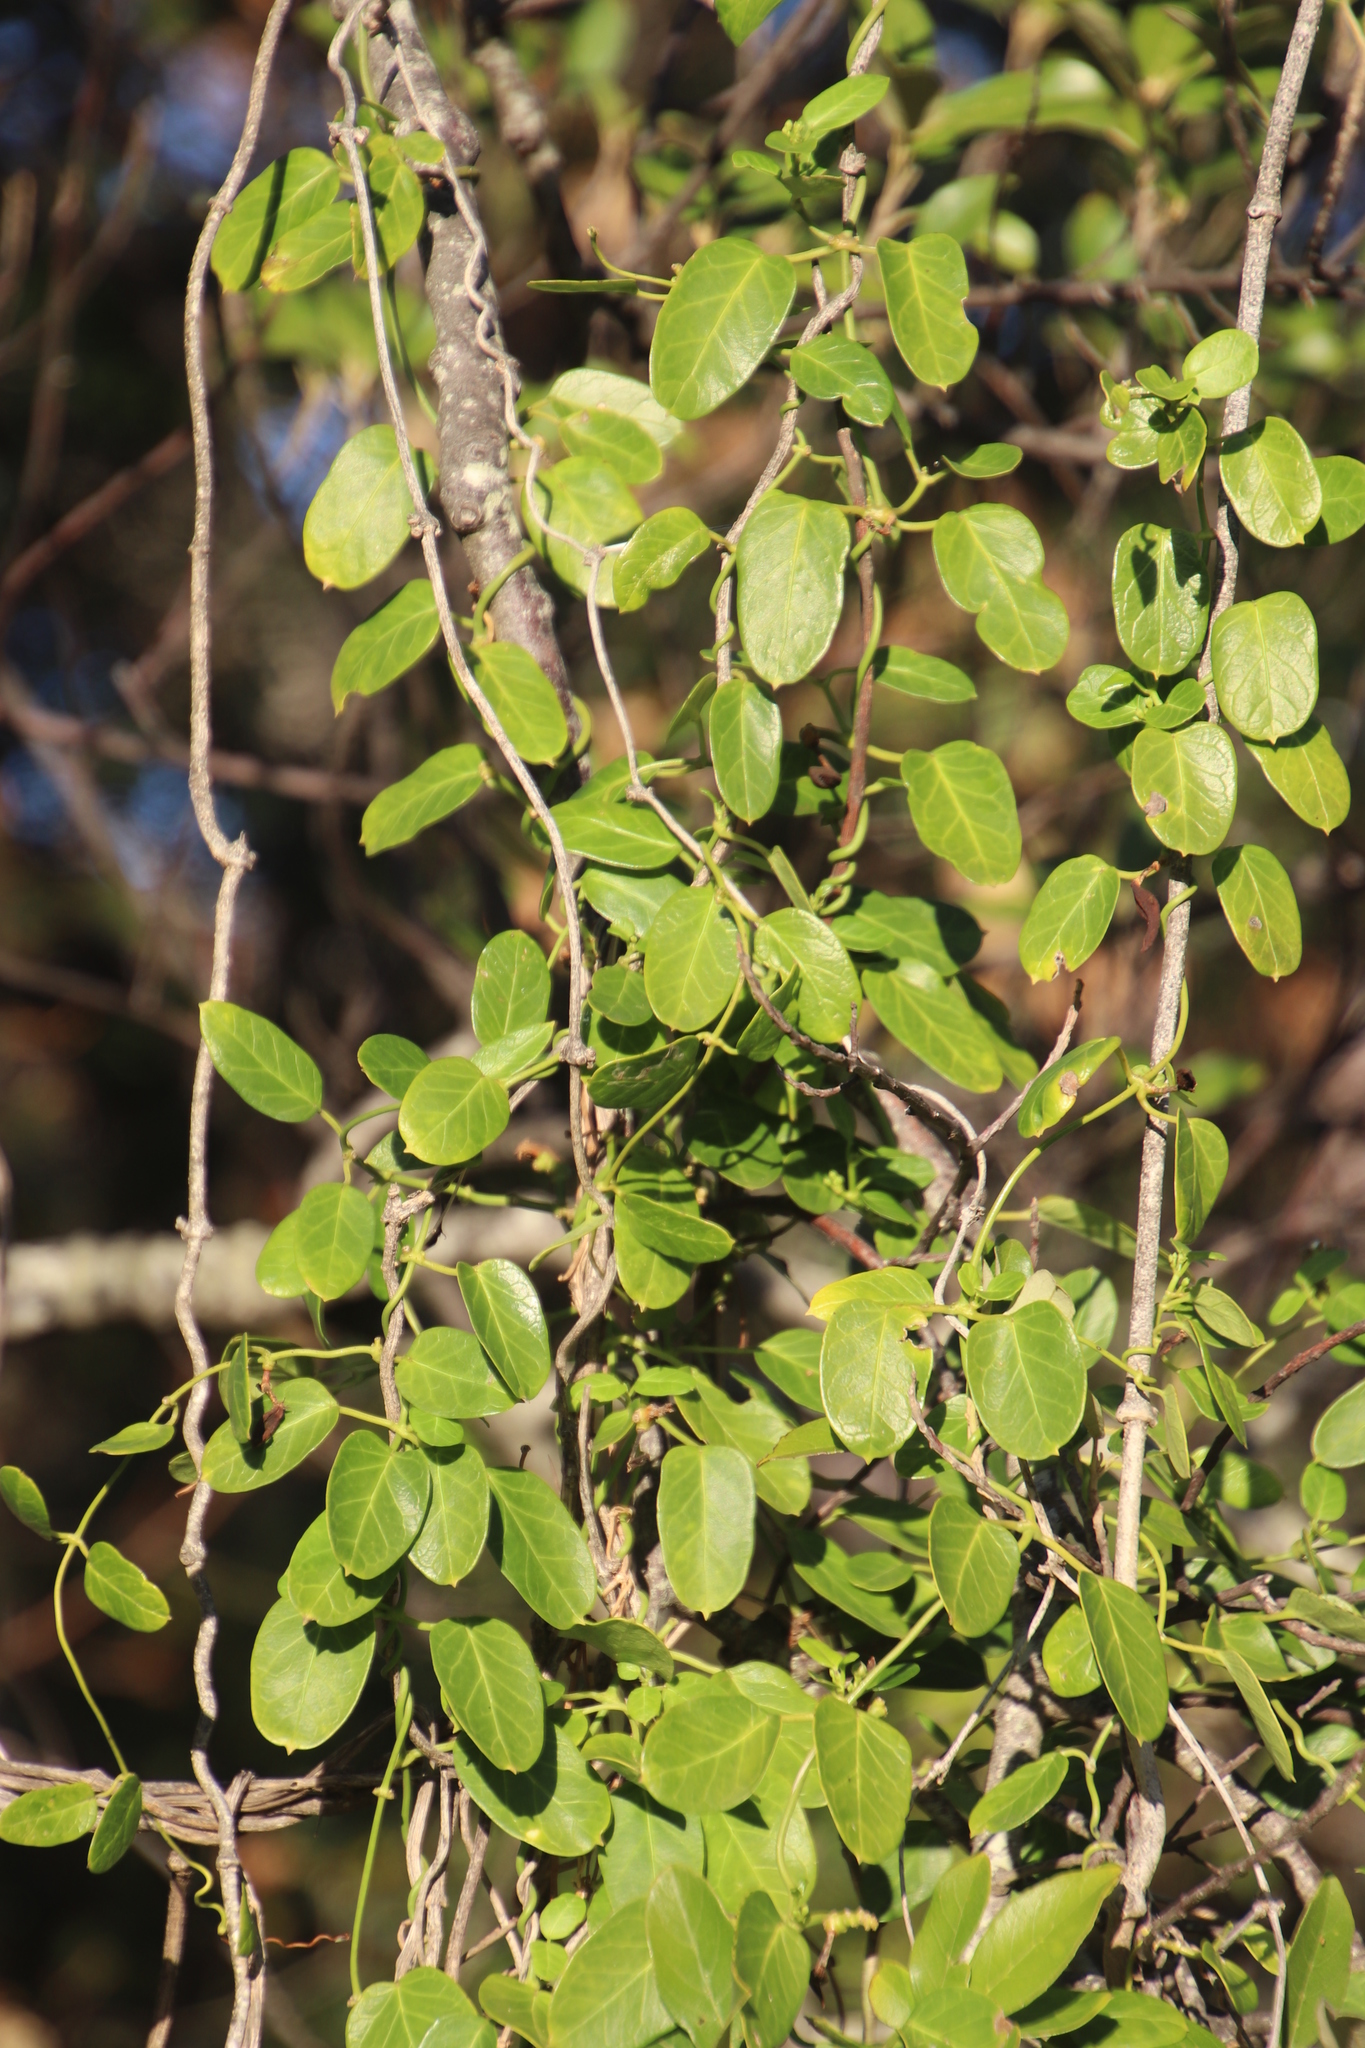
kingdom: Plantae
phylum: Tracheophyta
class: Magnoliopsida
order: Gentianales
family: Apocynaceae
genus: Cynanchum
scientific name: Cynanchum obtusifolium
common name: Monkey-rope
